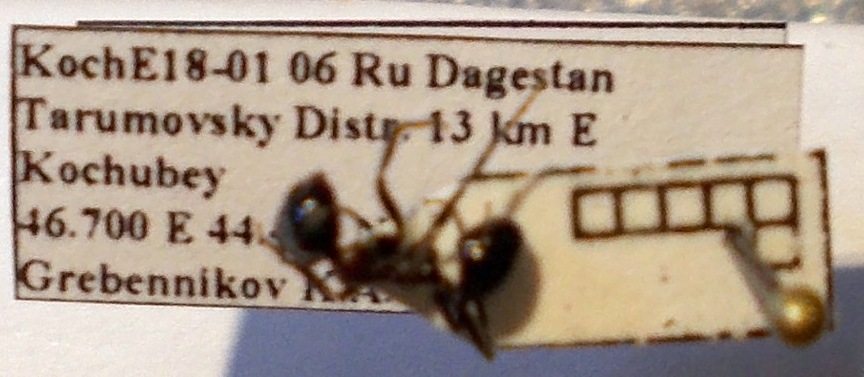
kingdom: Animalia
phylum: Arthropoda
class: Insecta
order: Hymenoptera
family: Formicidae
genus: Messor
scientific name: Messor denticulatus
